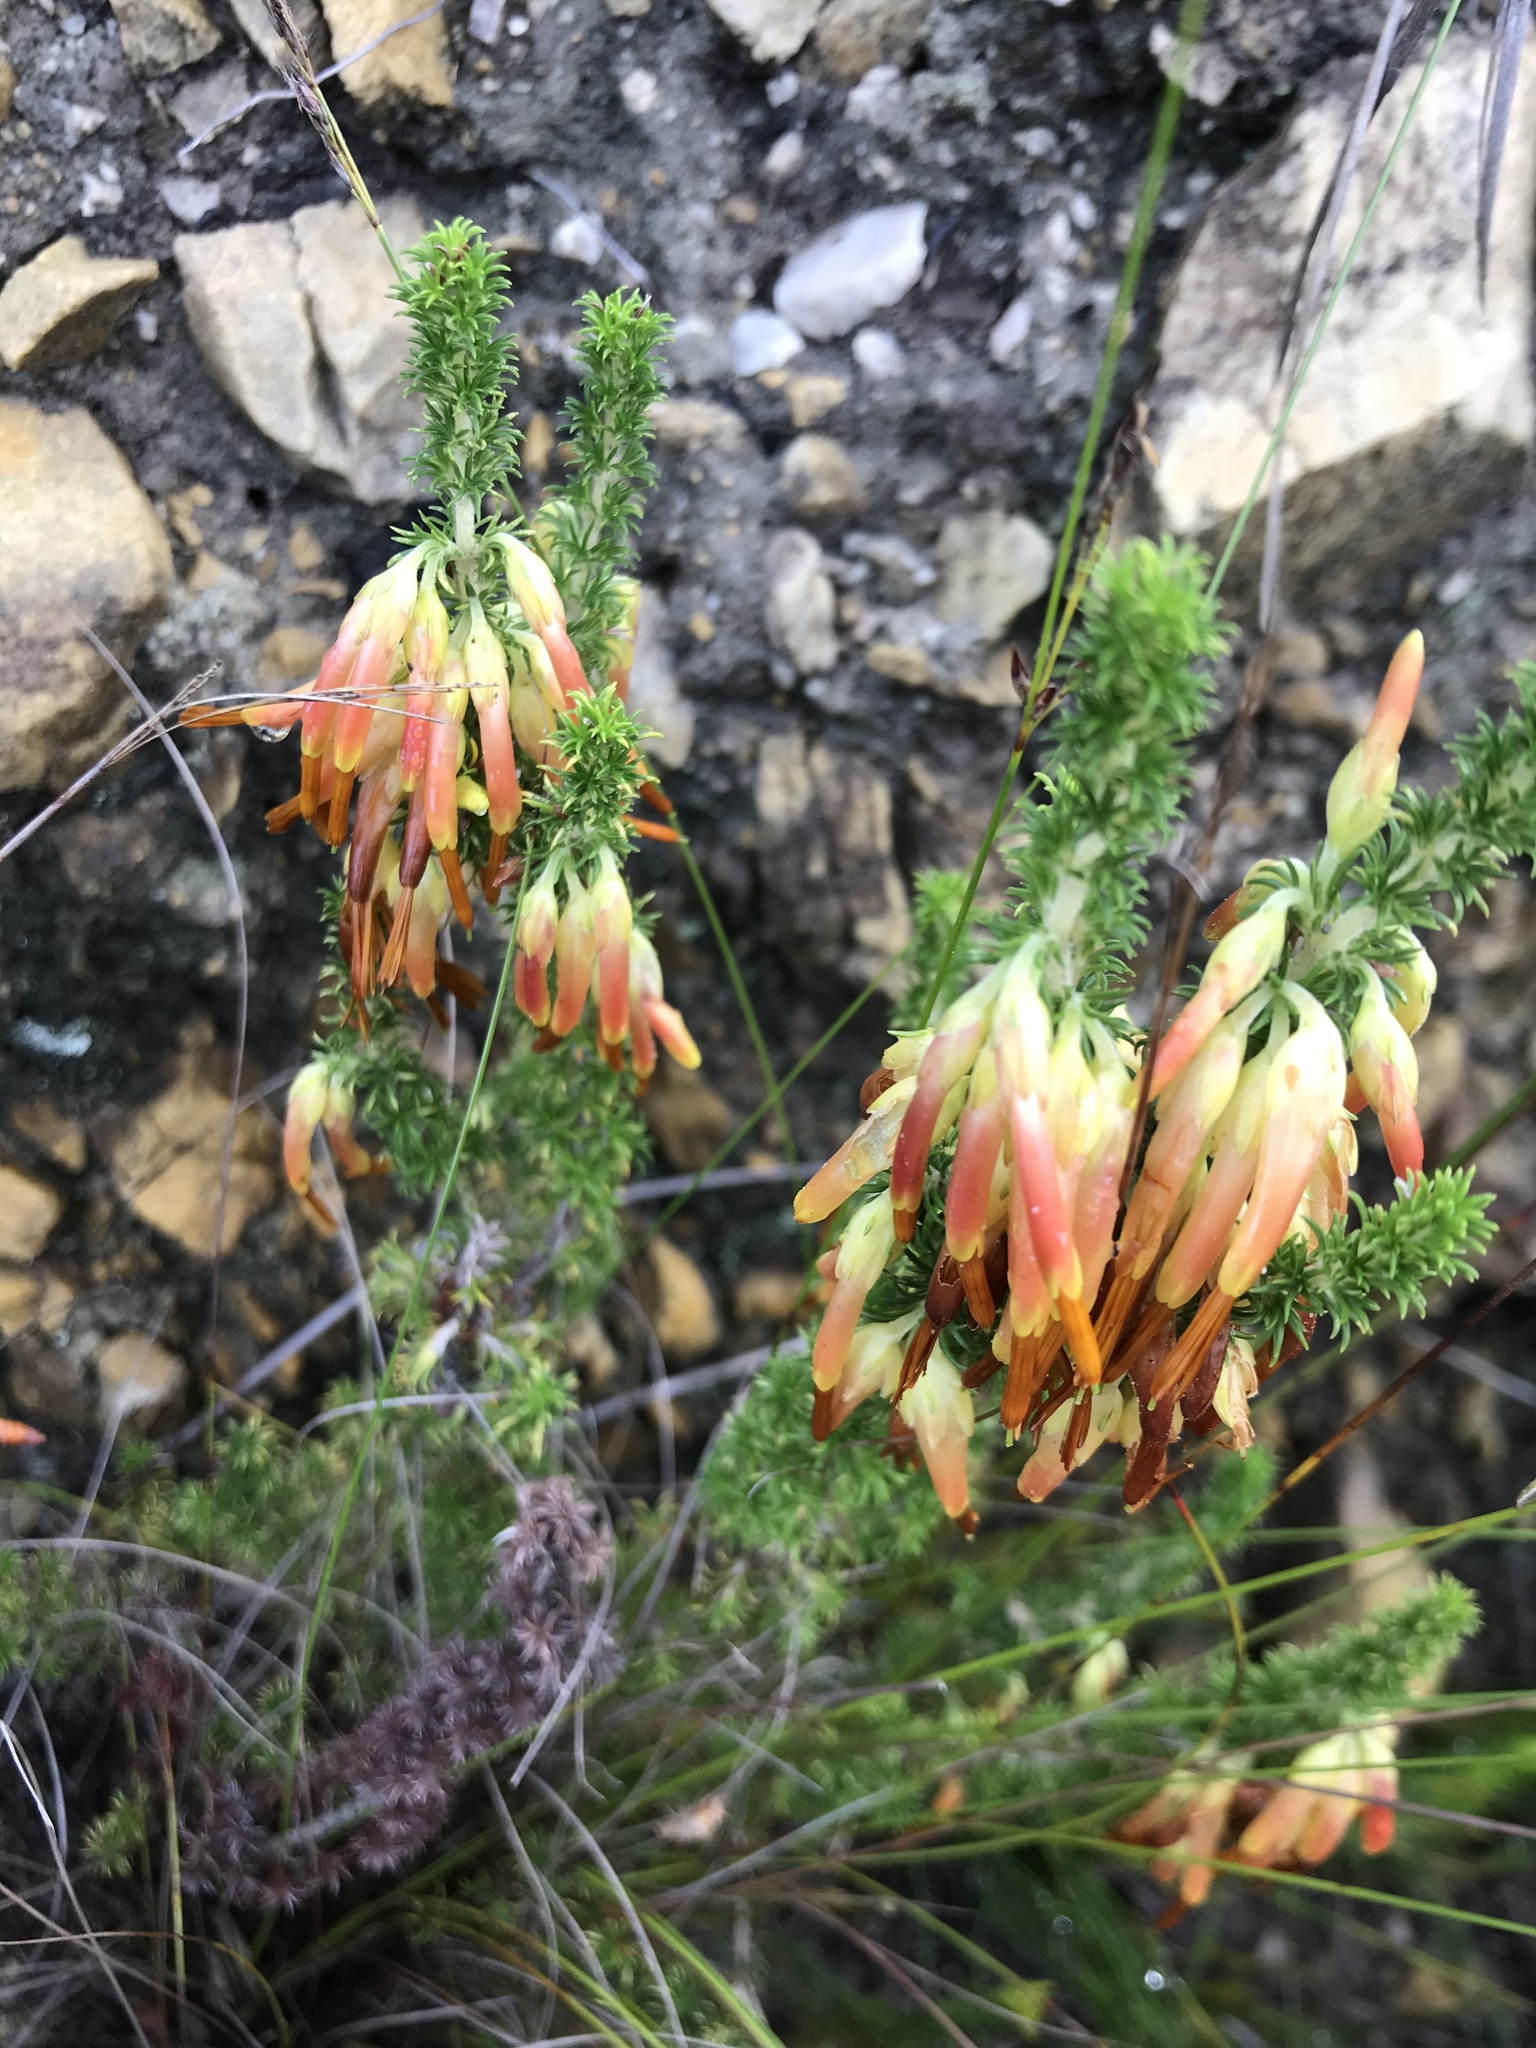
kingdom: Plantae
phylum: Tracheophyta
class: Magnoliopsida
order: Ericales
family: Ericaceae
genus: Erica
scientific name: Erica coccinea
